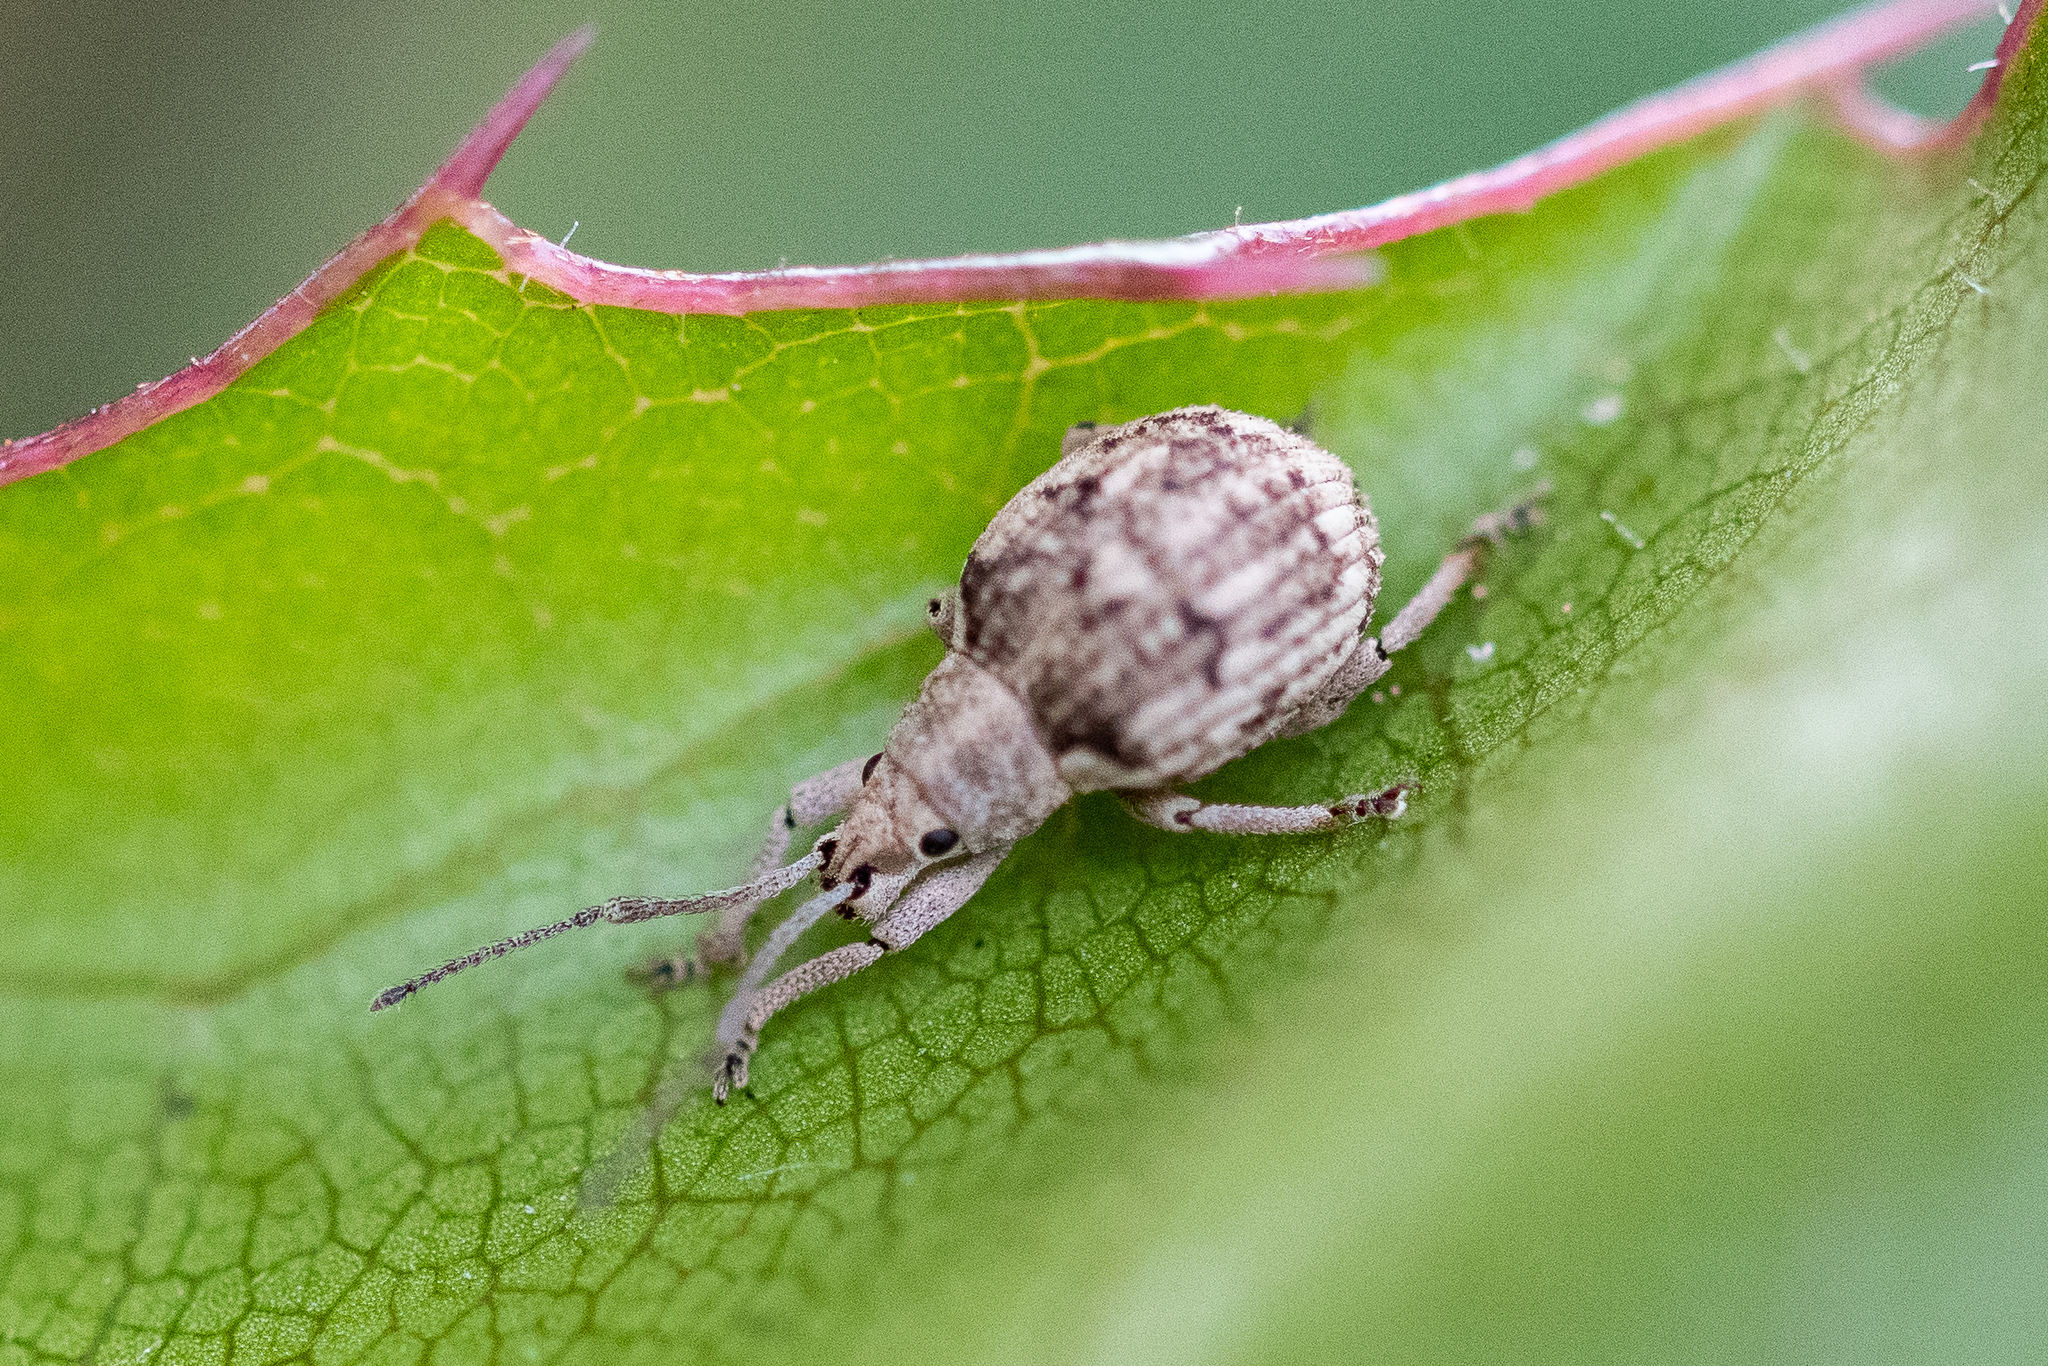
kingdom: Animalia
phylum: Arthropoda
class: Insecta
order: Coleoptera
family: Curculionidae
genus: Ellimenistes
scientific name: Ellimenistes laesicollis
